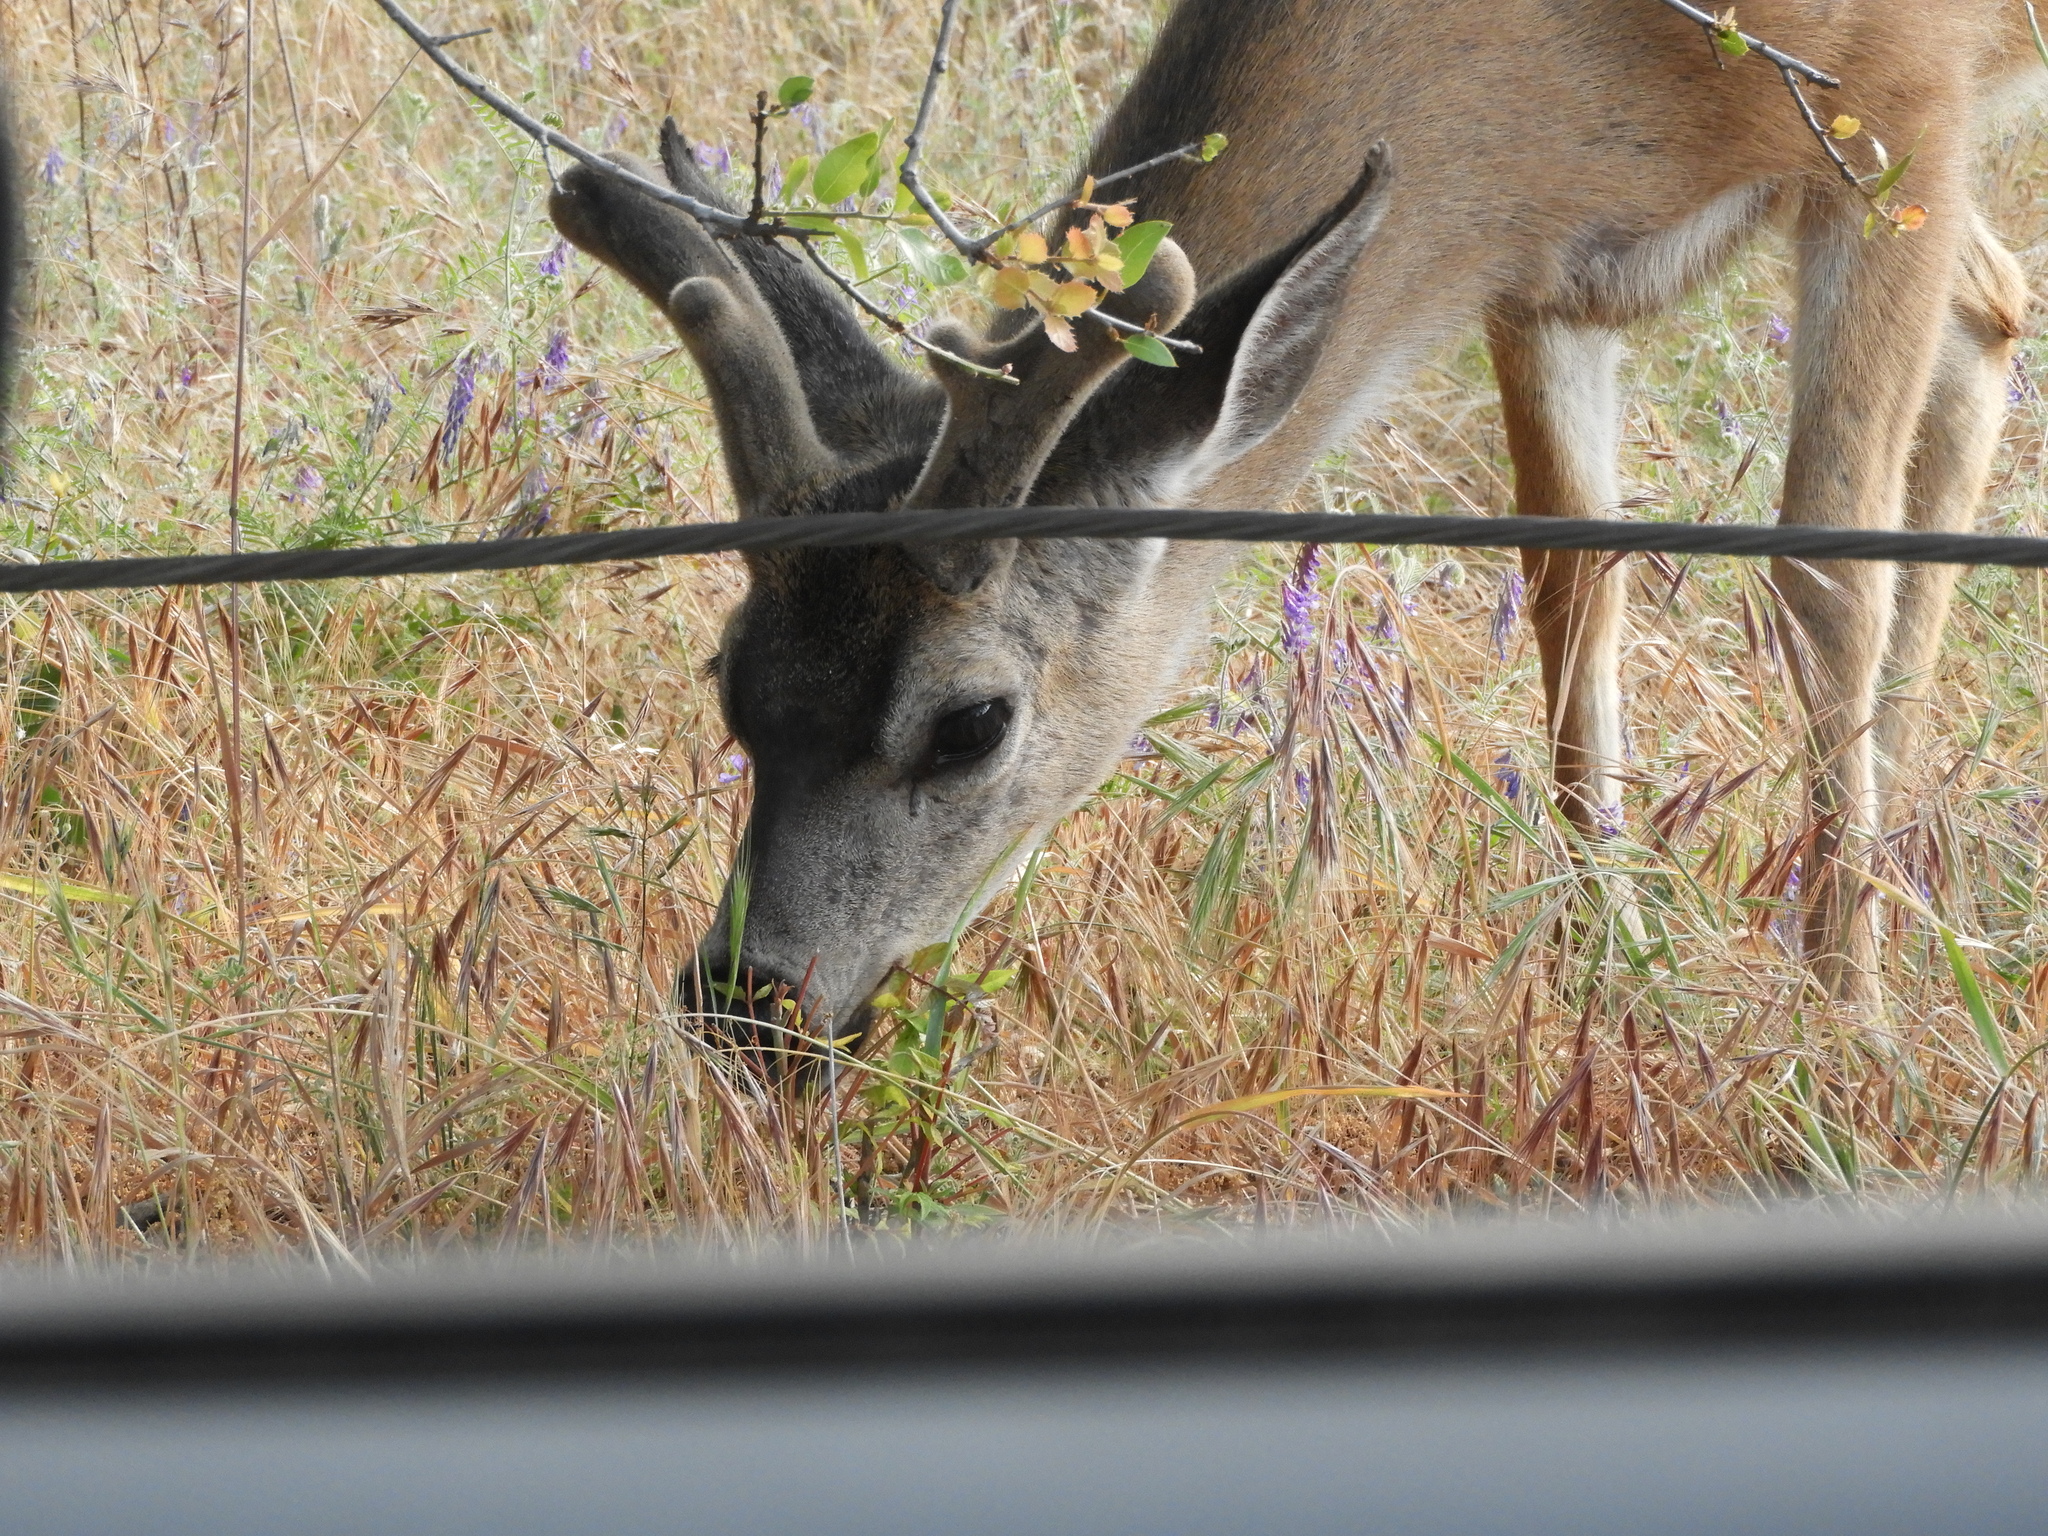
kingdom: Animalia
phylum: Chordata
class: Mammalia
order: Artiodactyla
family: Cervidae
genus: Odocoileus
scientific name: Odocoileus hemionus
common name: Mule deer
